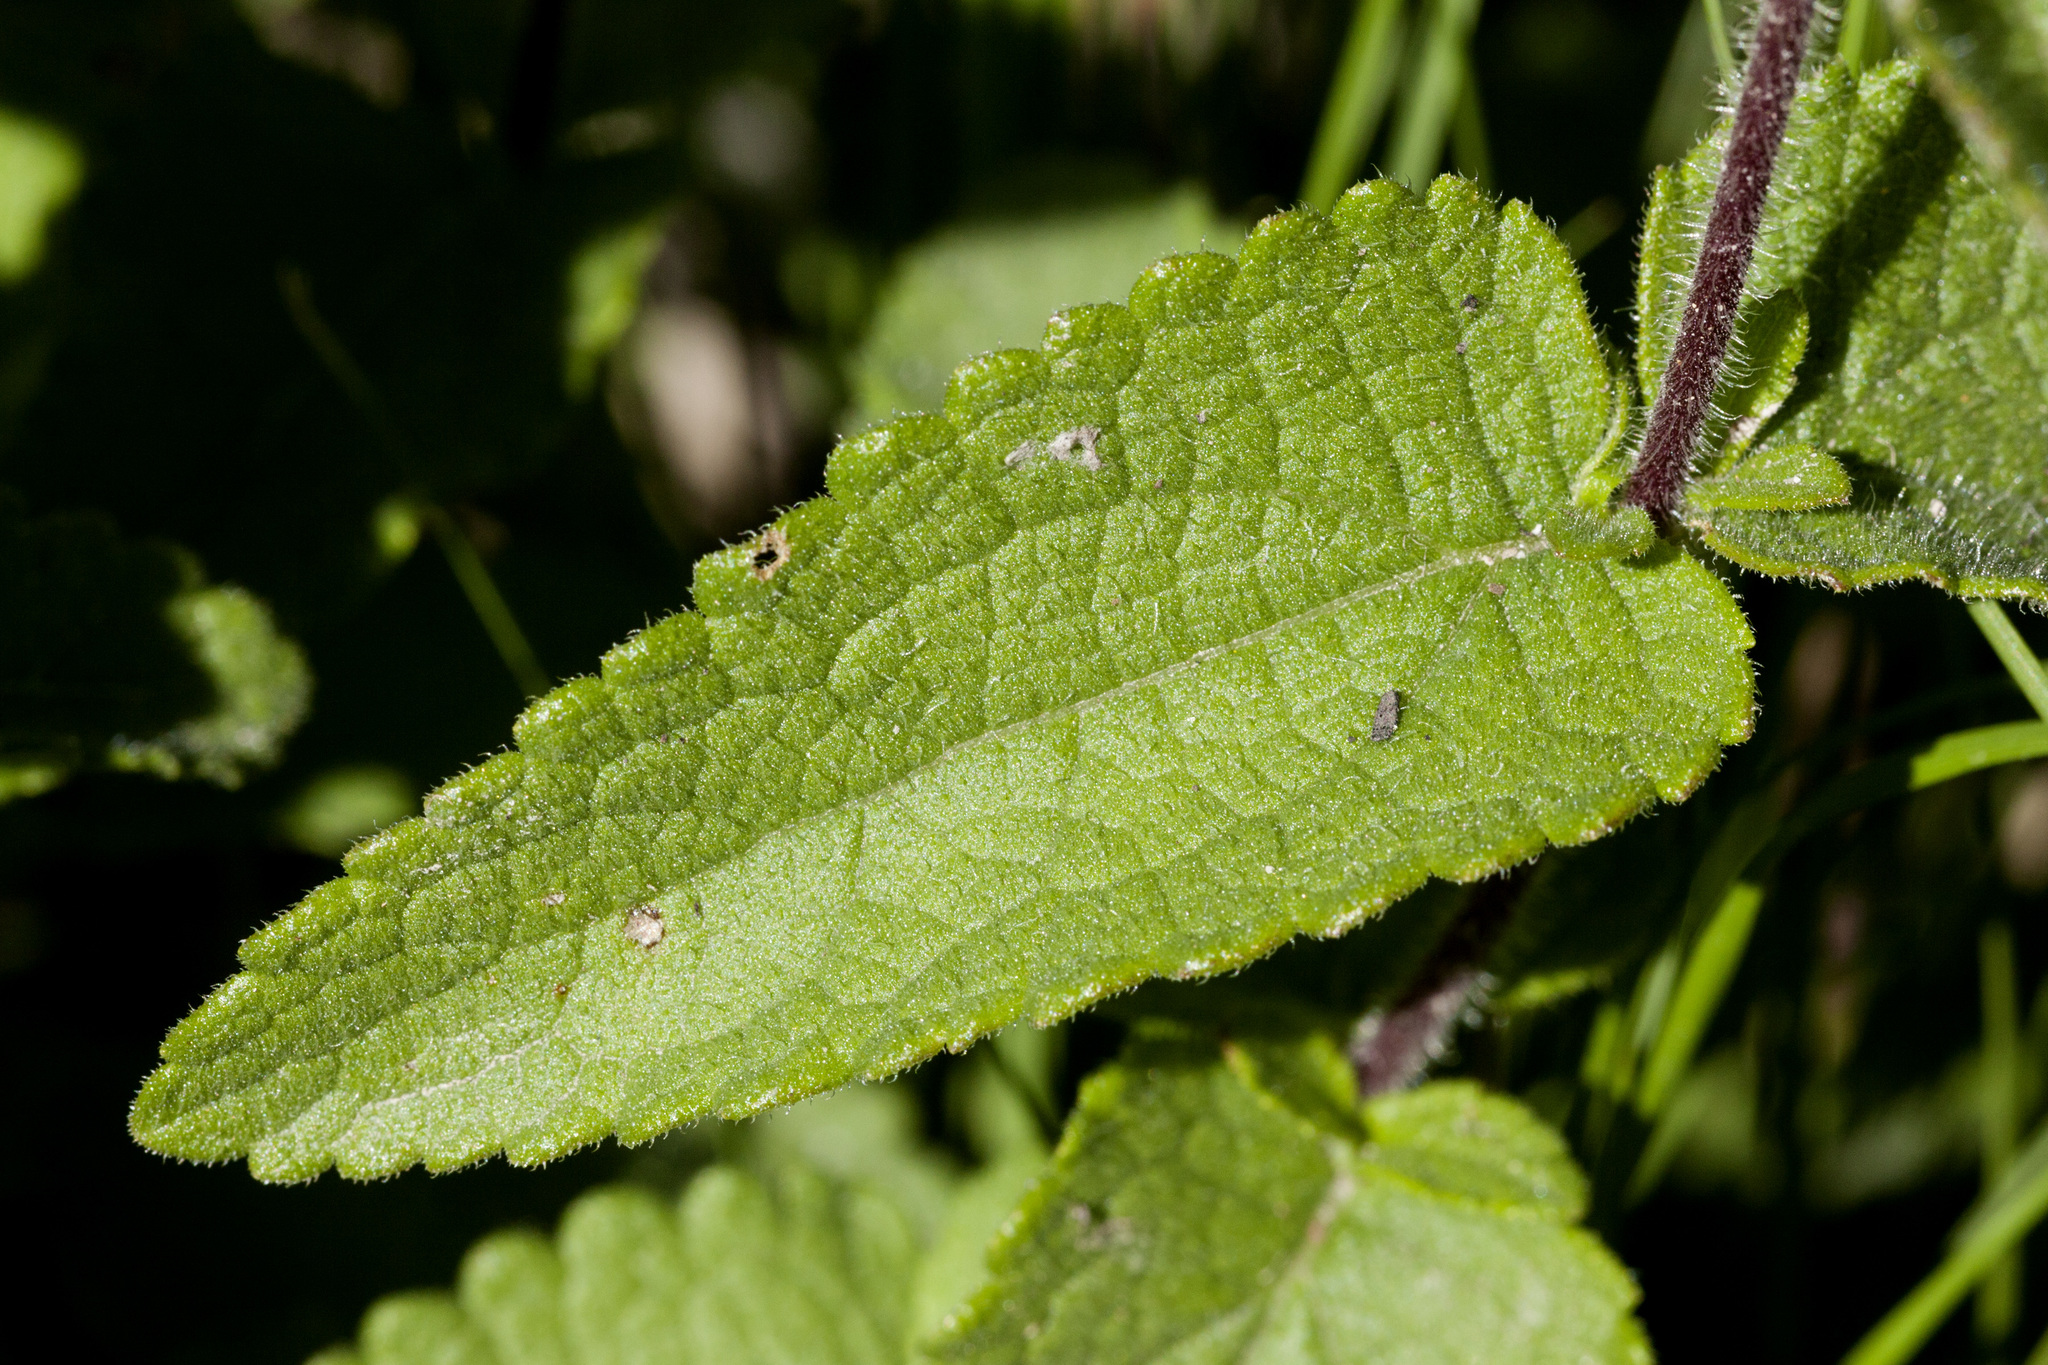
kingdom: Plantae
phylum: Tracheophyta
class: Magnoliopsida
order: Asterales
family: Asteraceae
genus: Brickellia
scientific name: Brickellia betonicifolia
